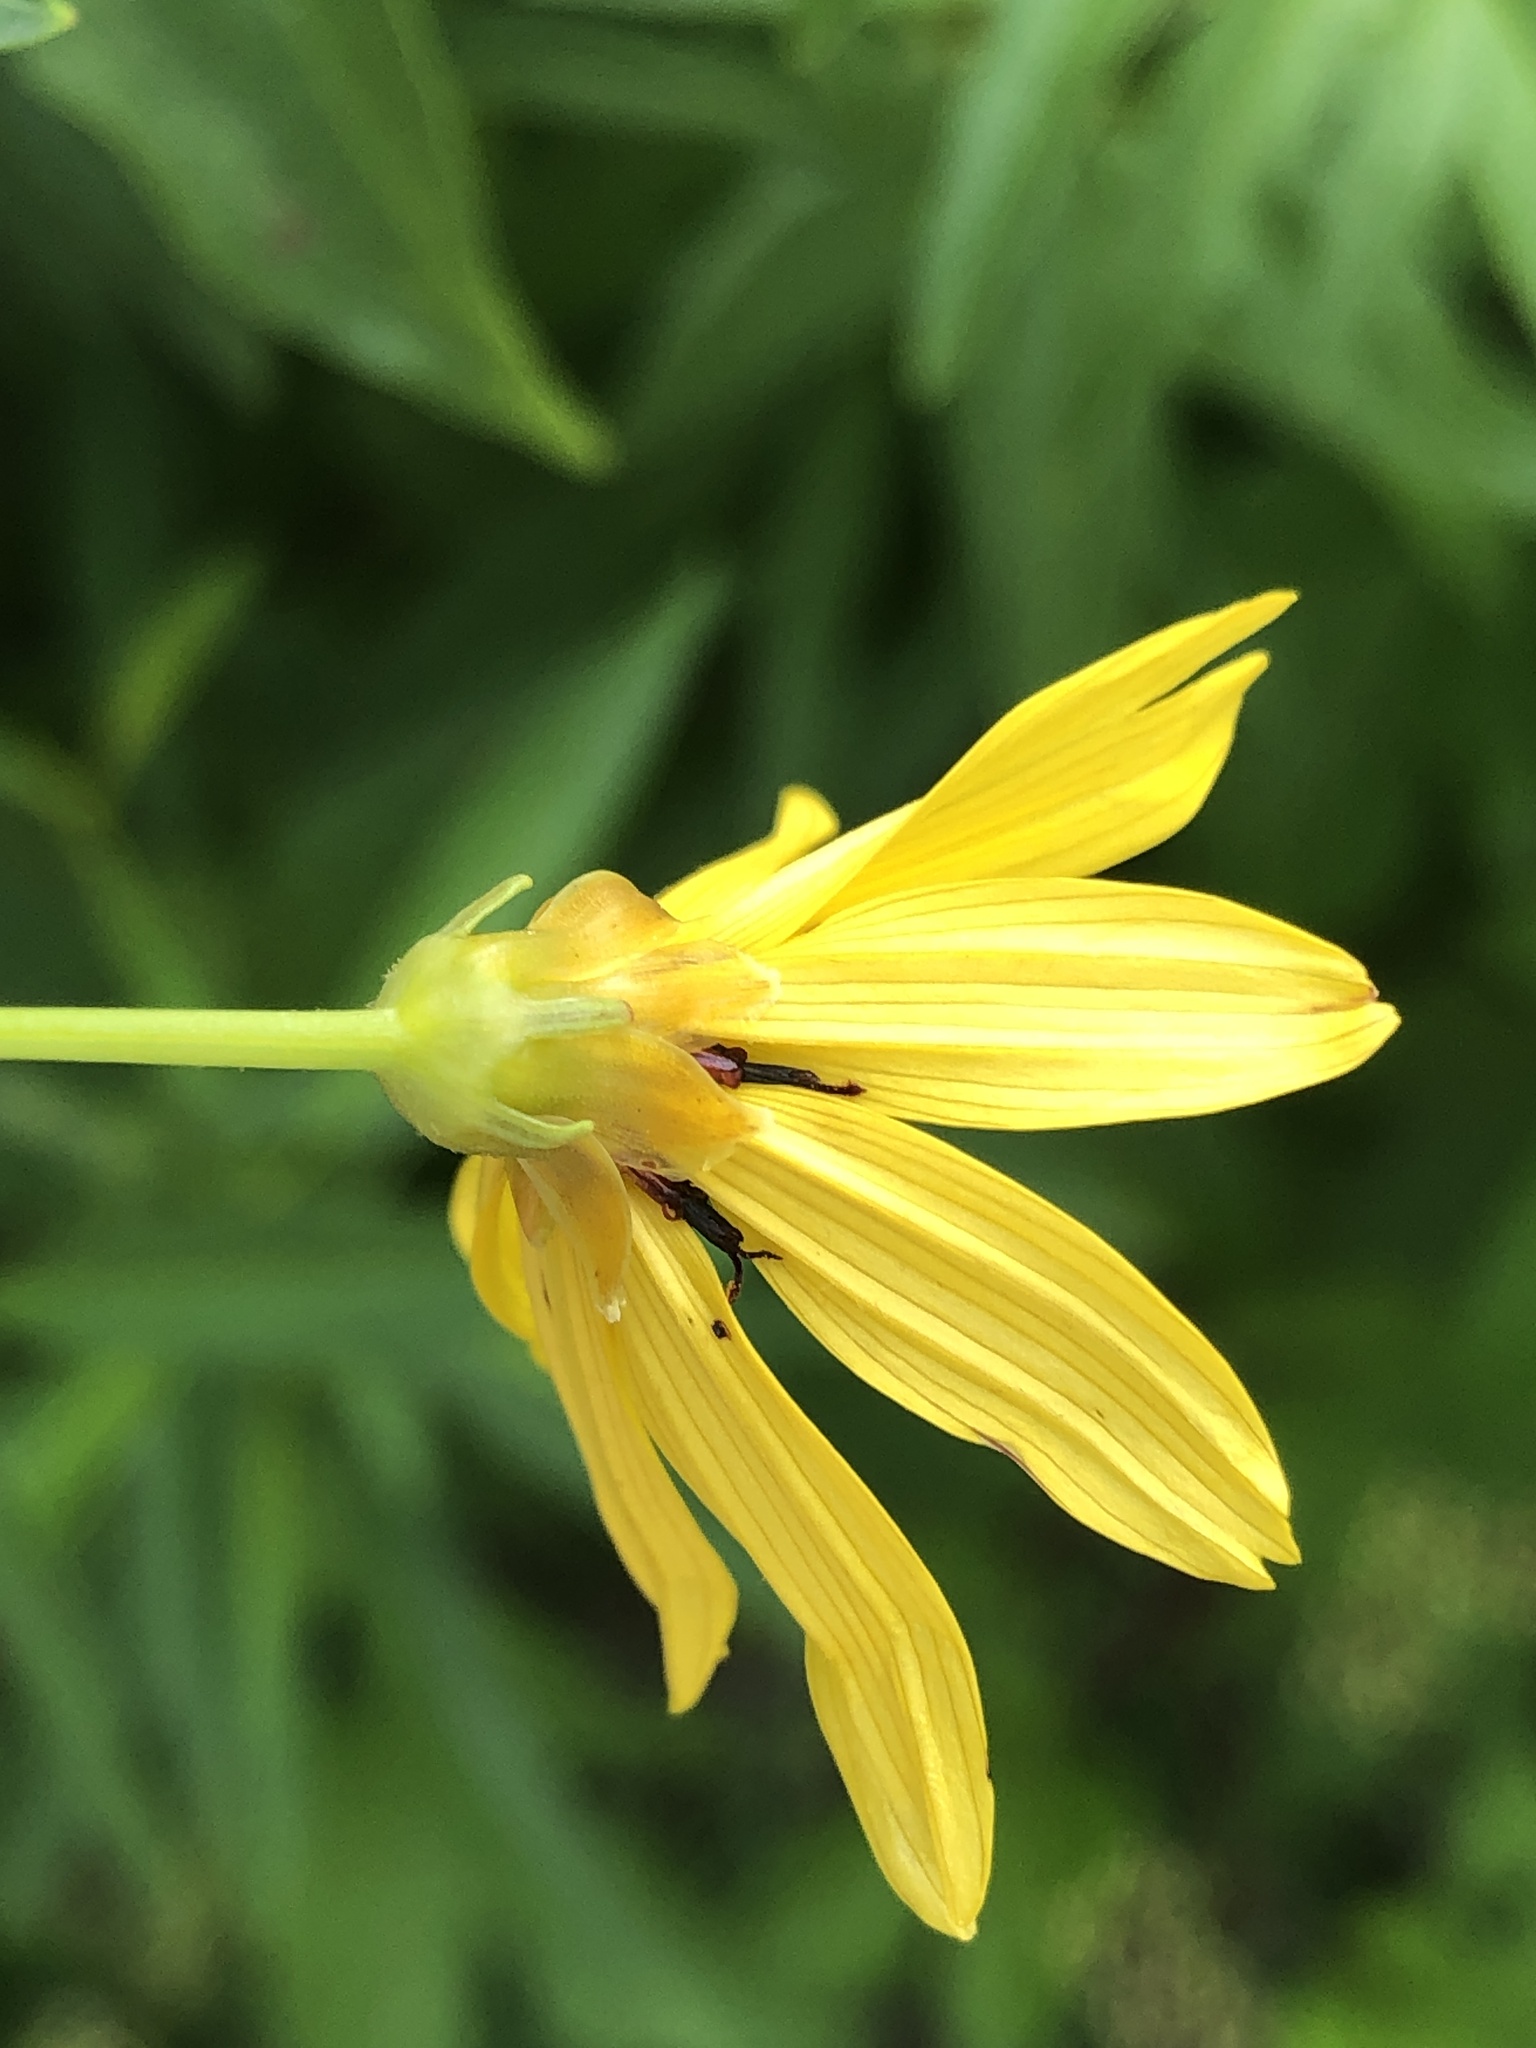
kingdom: Plantae
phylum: Tracheophyta
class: Magnoliopsida
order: Asterales
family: Asteraceae
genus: Coreopsis
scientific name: Coreopsis tripteris
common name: Tall coreopsis
